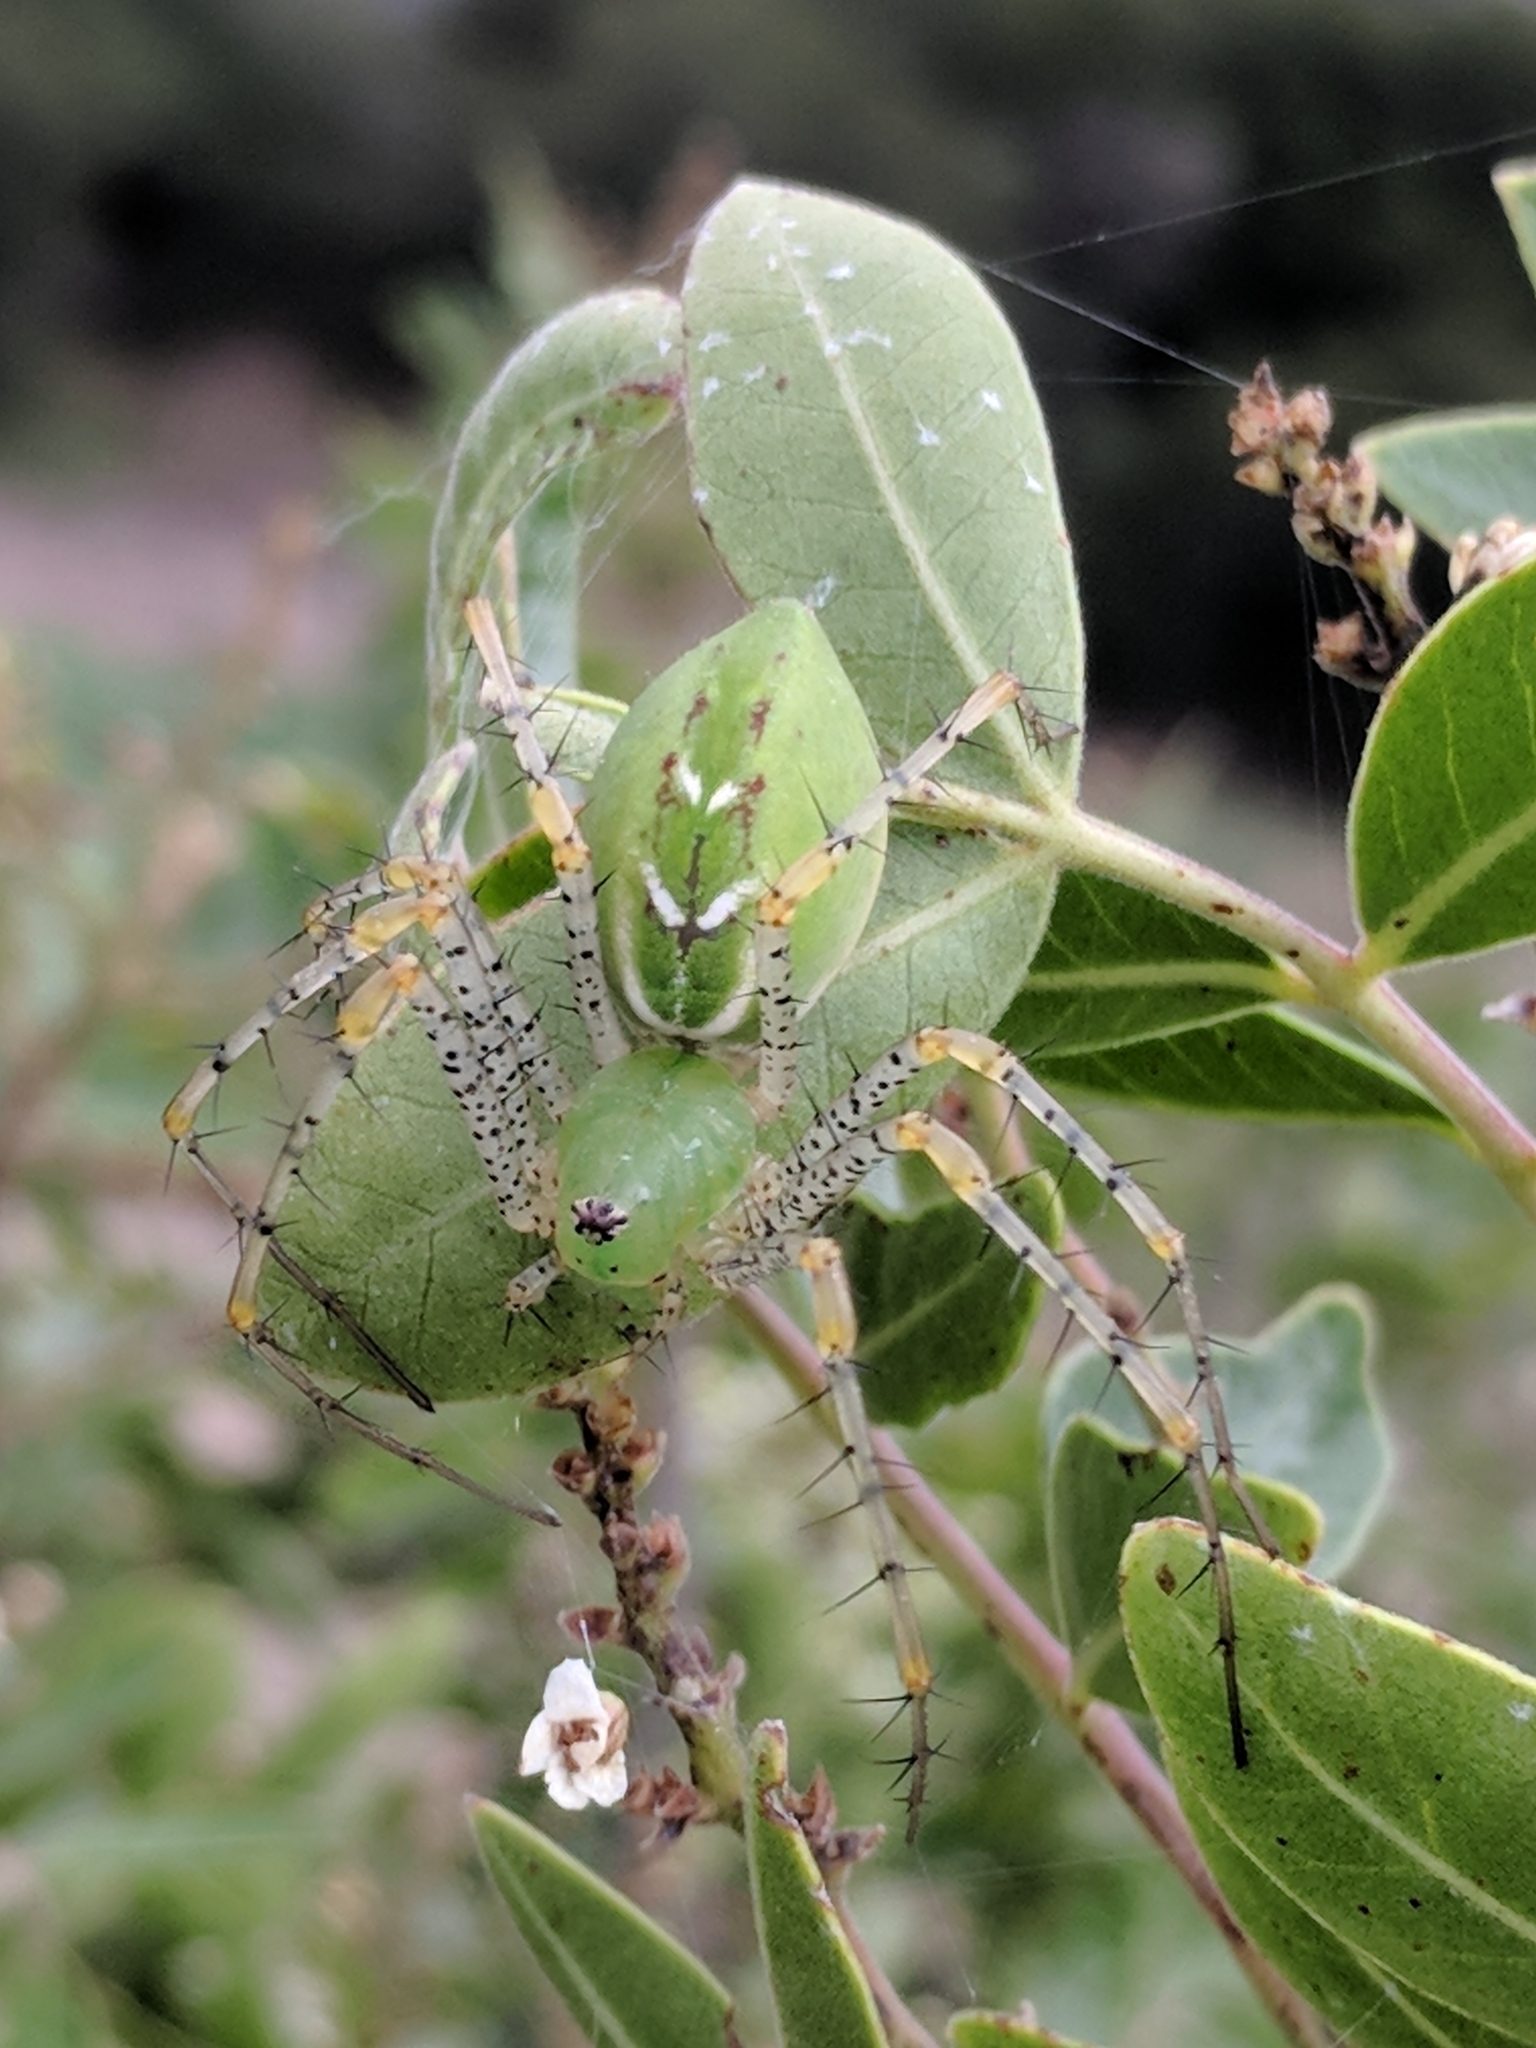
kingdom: Animalia
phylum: Arthropoda
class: Arachnida
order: Araneae
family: Oxyopidae
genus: Peucetia
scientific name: Peucetia viridans
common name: Lynx spiders
